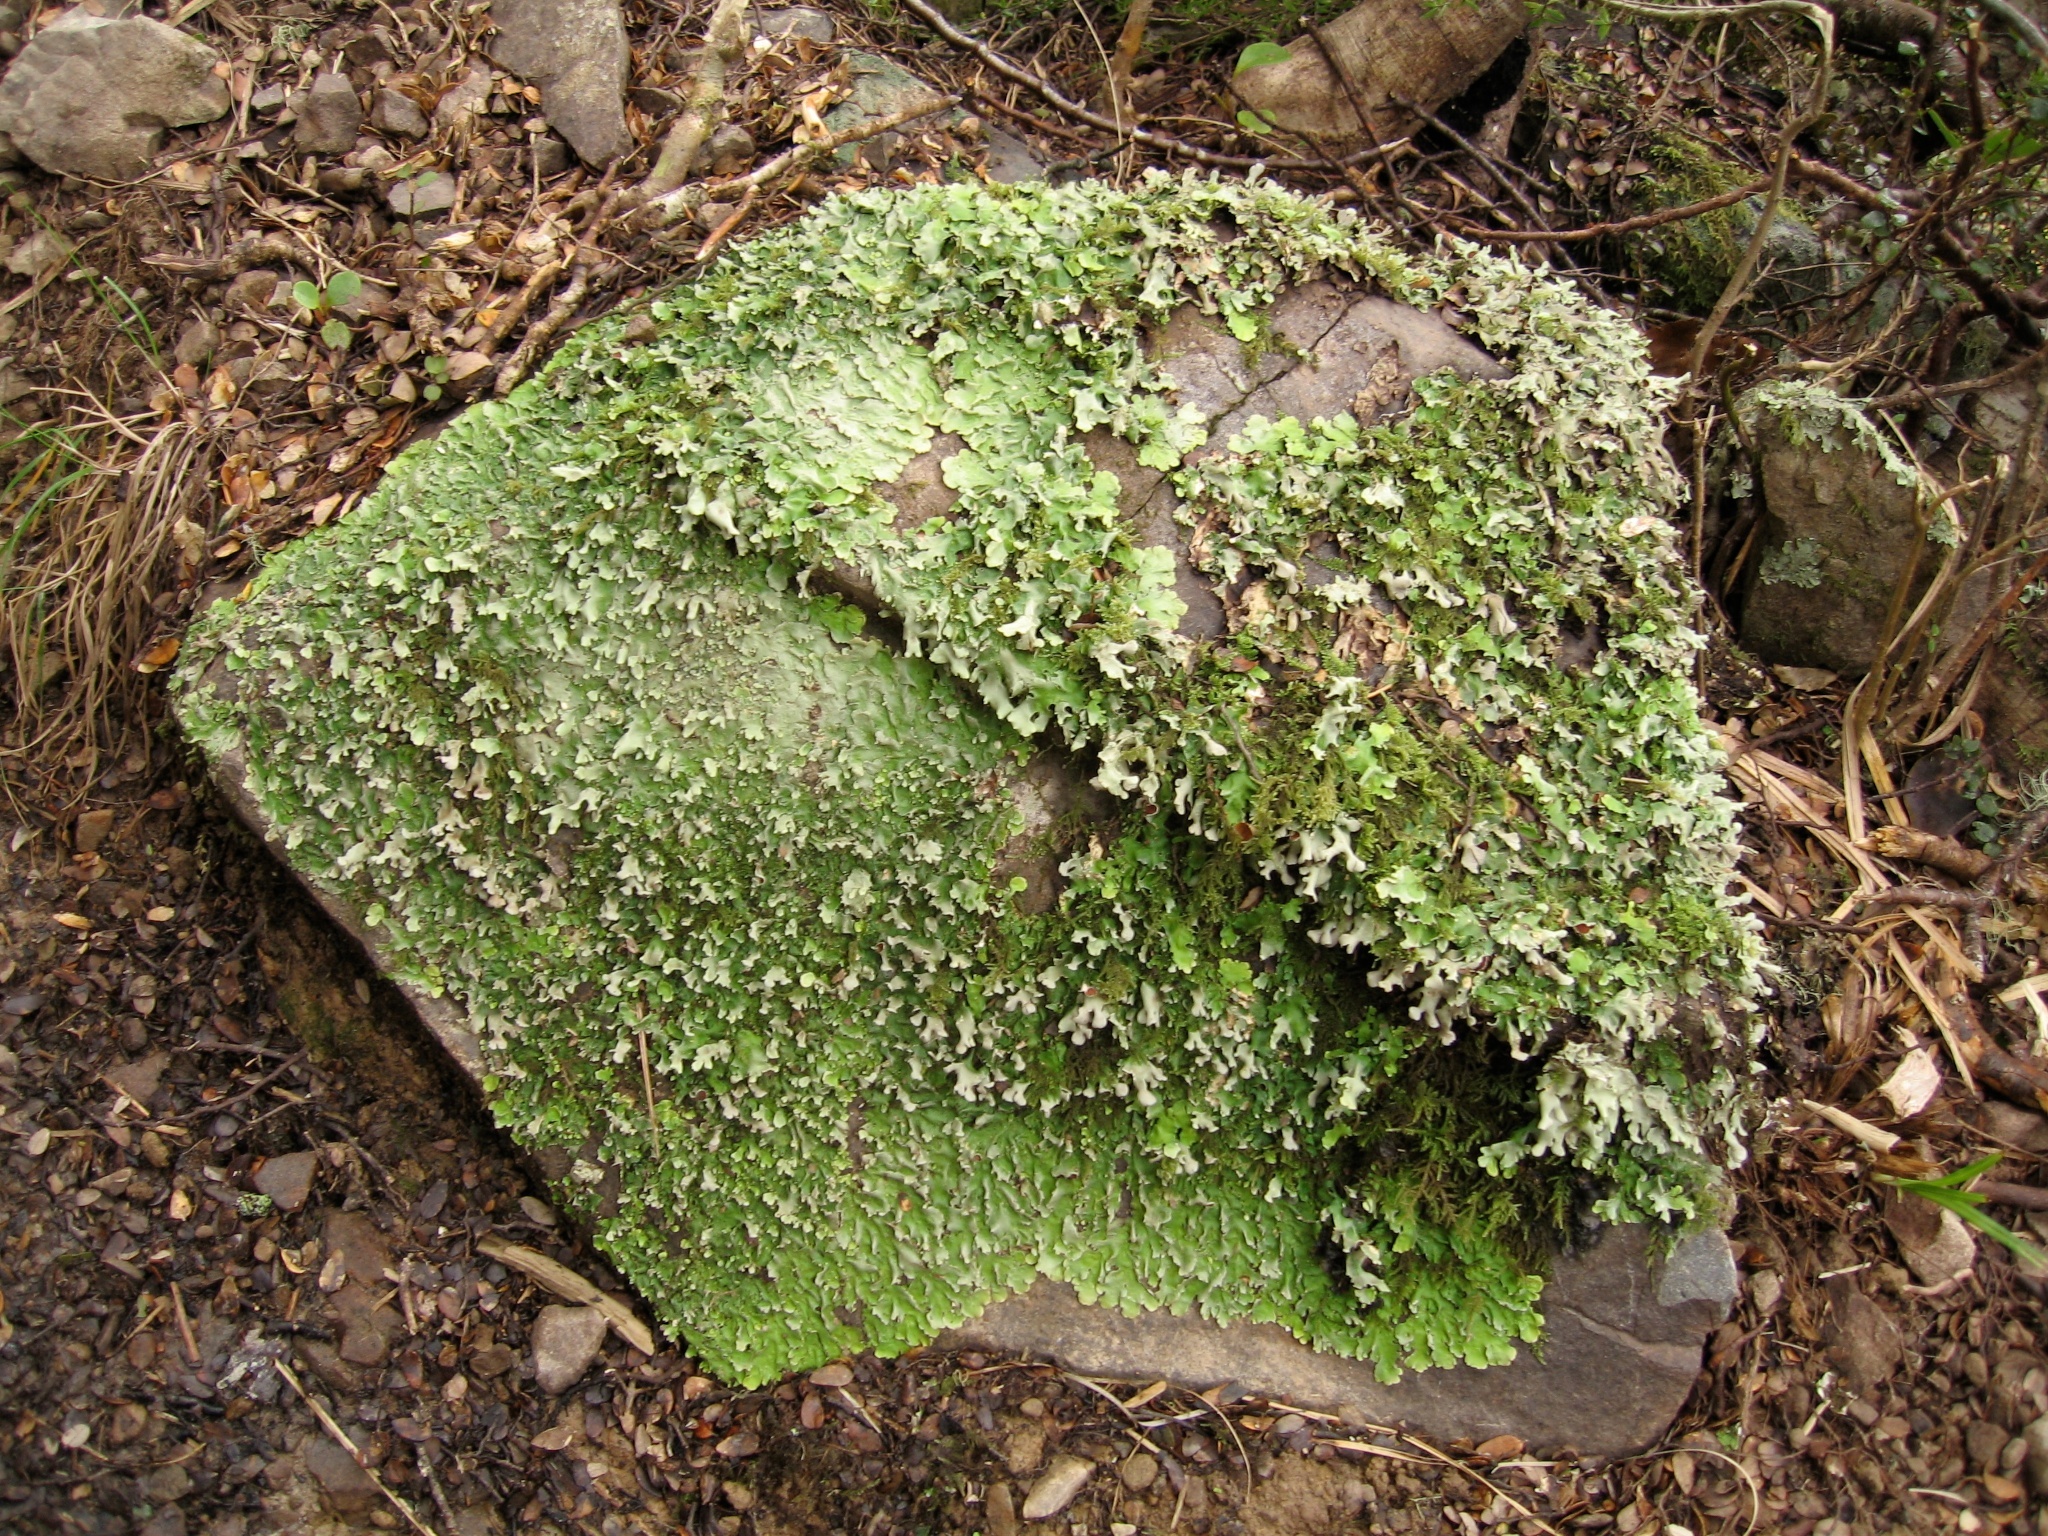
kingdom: Fungi
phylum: Ascomycota
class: Lecanoromycetes
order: Peltigerales
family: Nephromataceae
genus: Nephroma
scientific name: Nephroma australe
